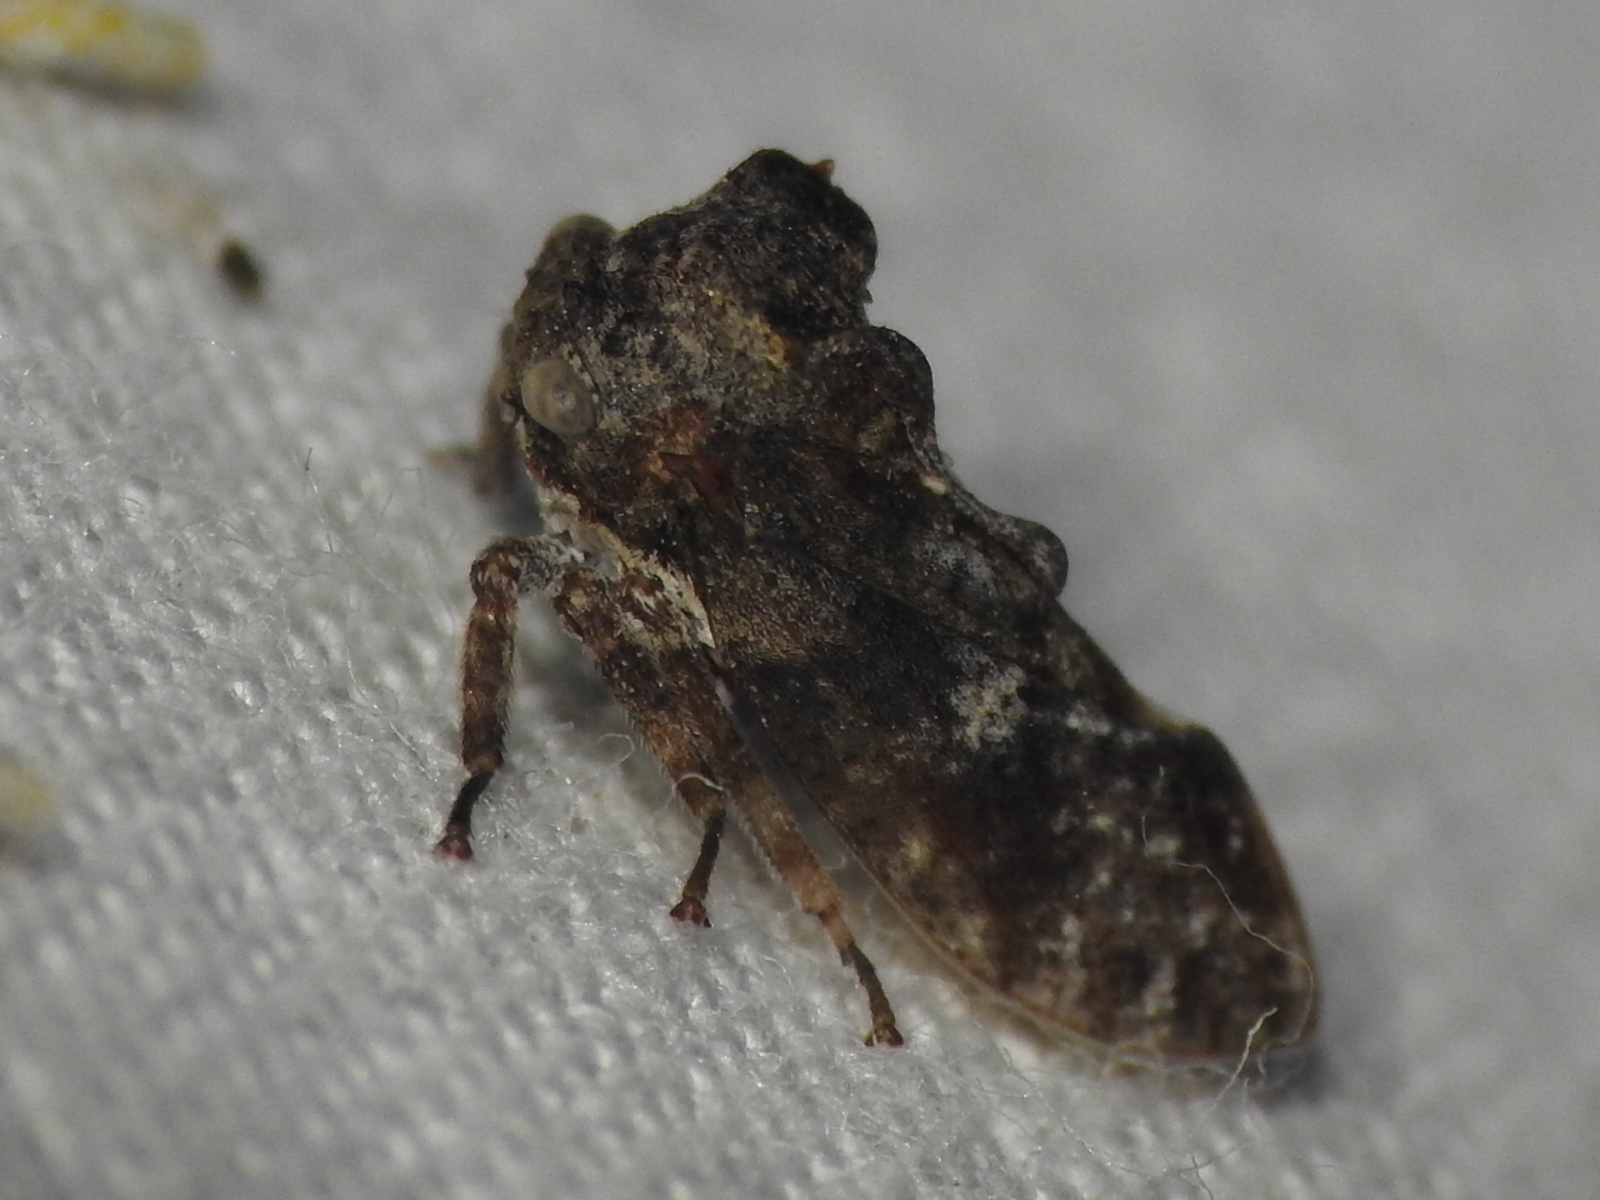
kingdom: Animalia
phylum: Arthropoda
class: Insecta
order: Hemiptera
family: Membracidae
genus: Microcentrus
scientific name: Microcentrus perdita
